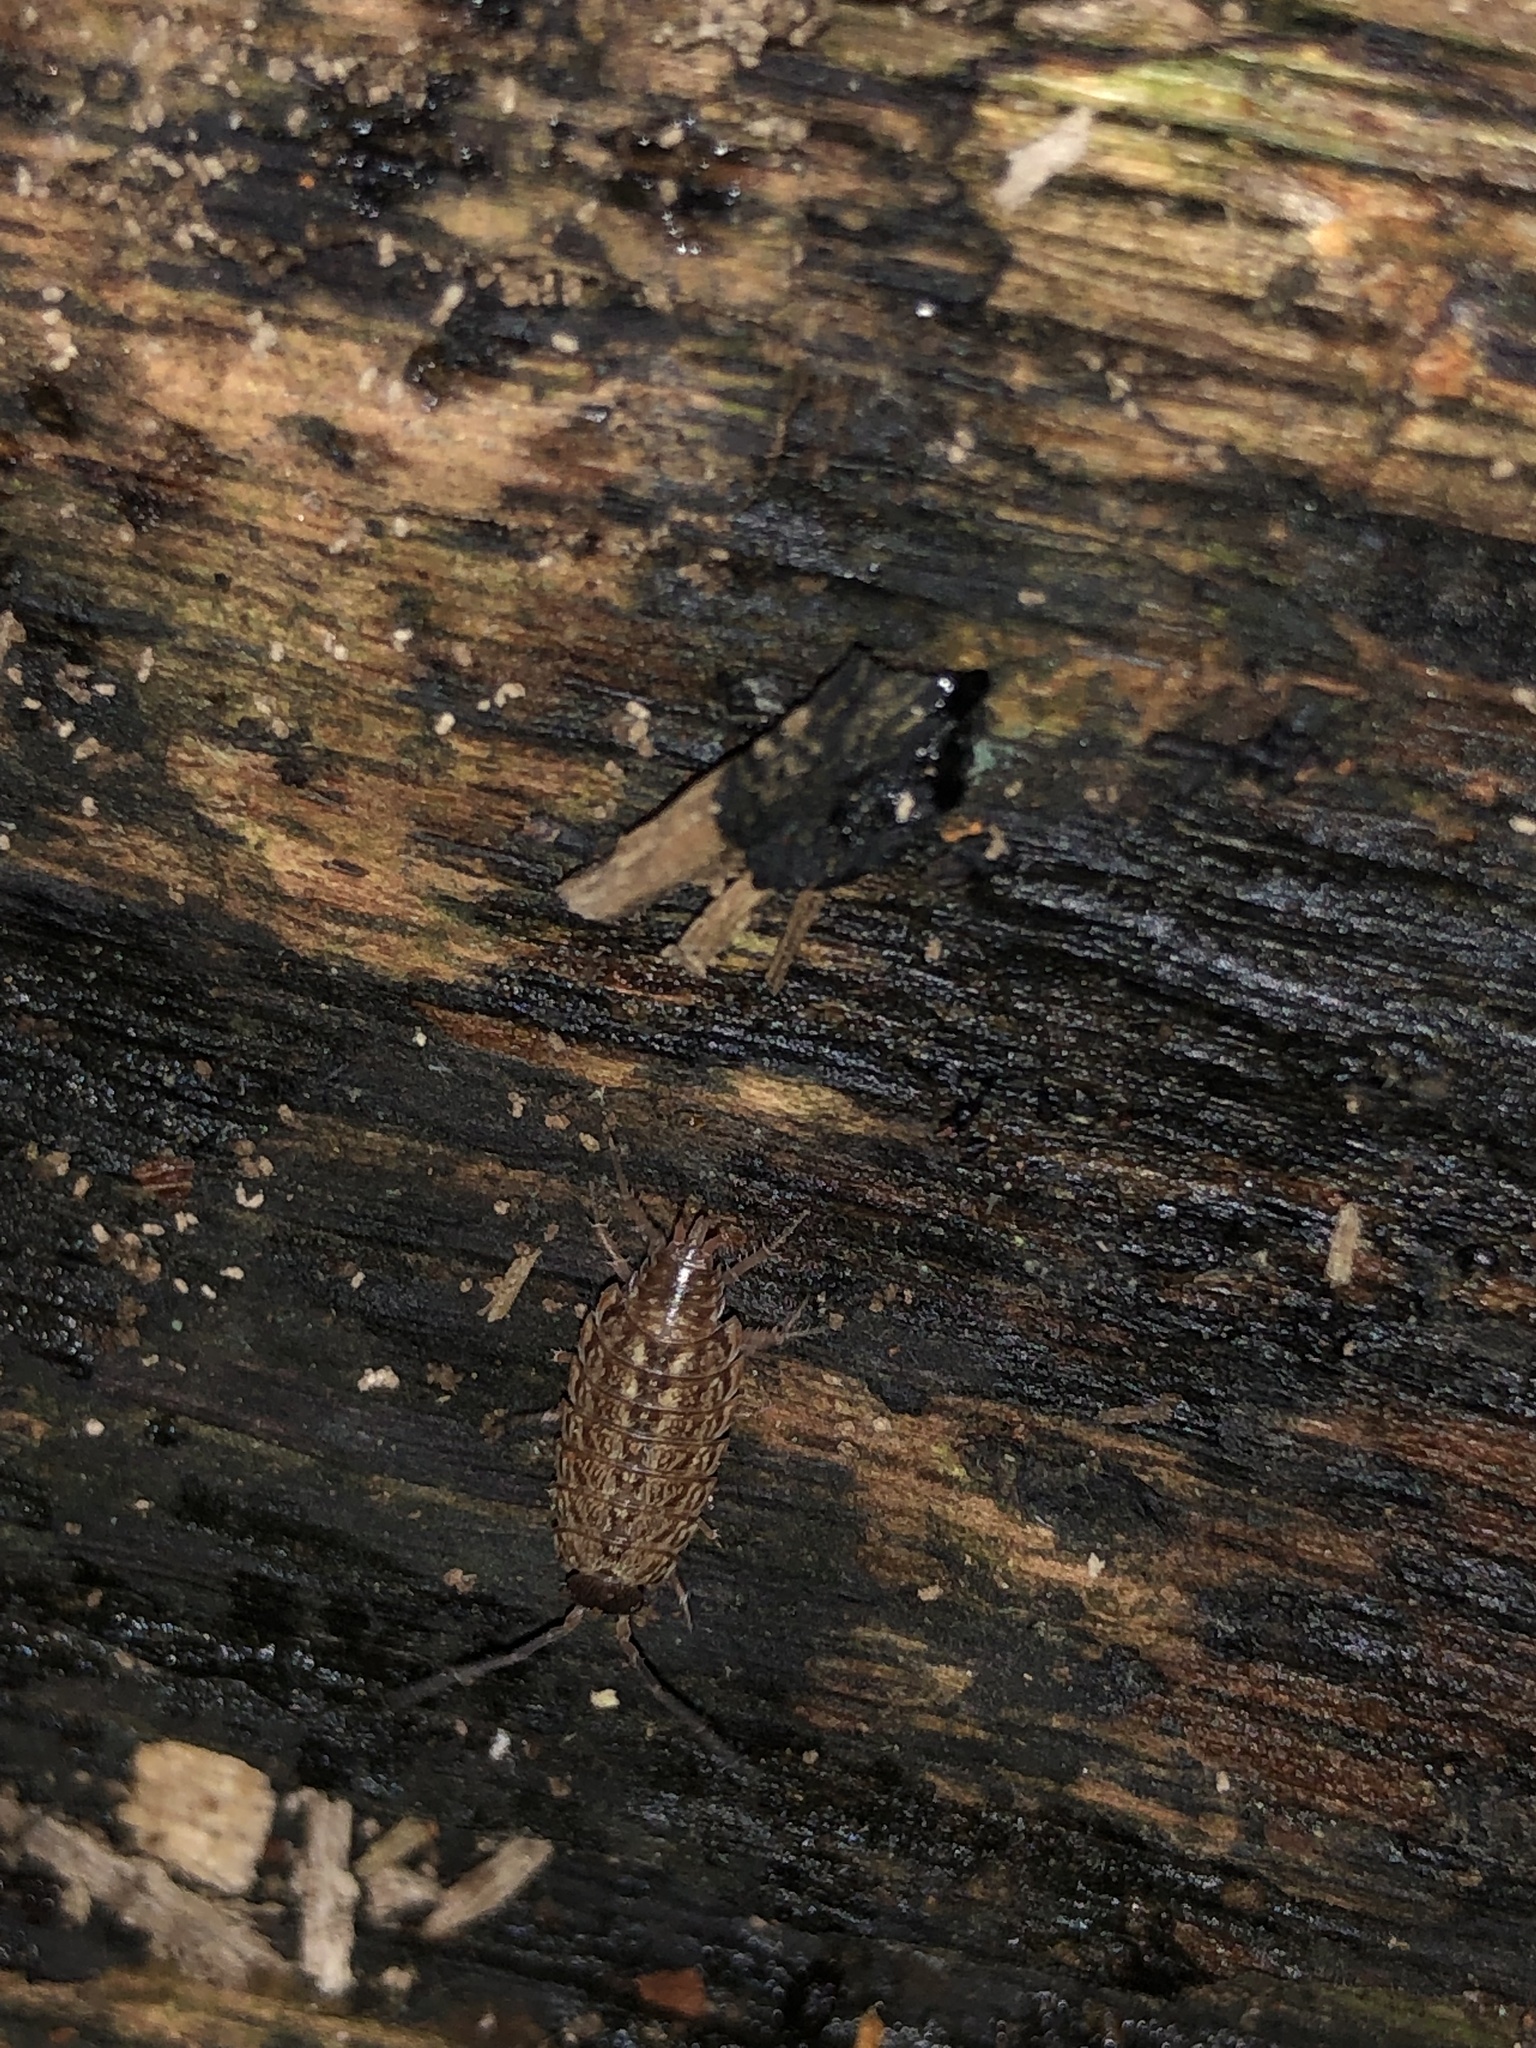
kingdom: Animalia
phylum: Arthropoda
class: Malacostraca
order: Isopoda
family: Philosciidae
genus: Philoscia
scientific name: Philoscia muscorum
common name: Common striped woodlouse
